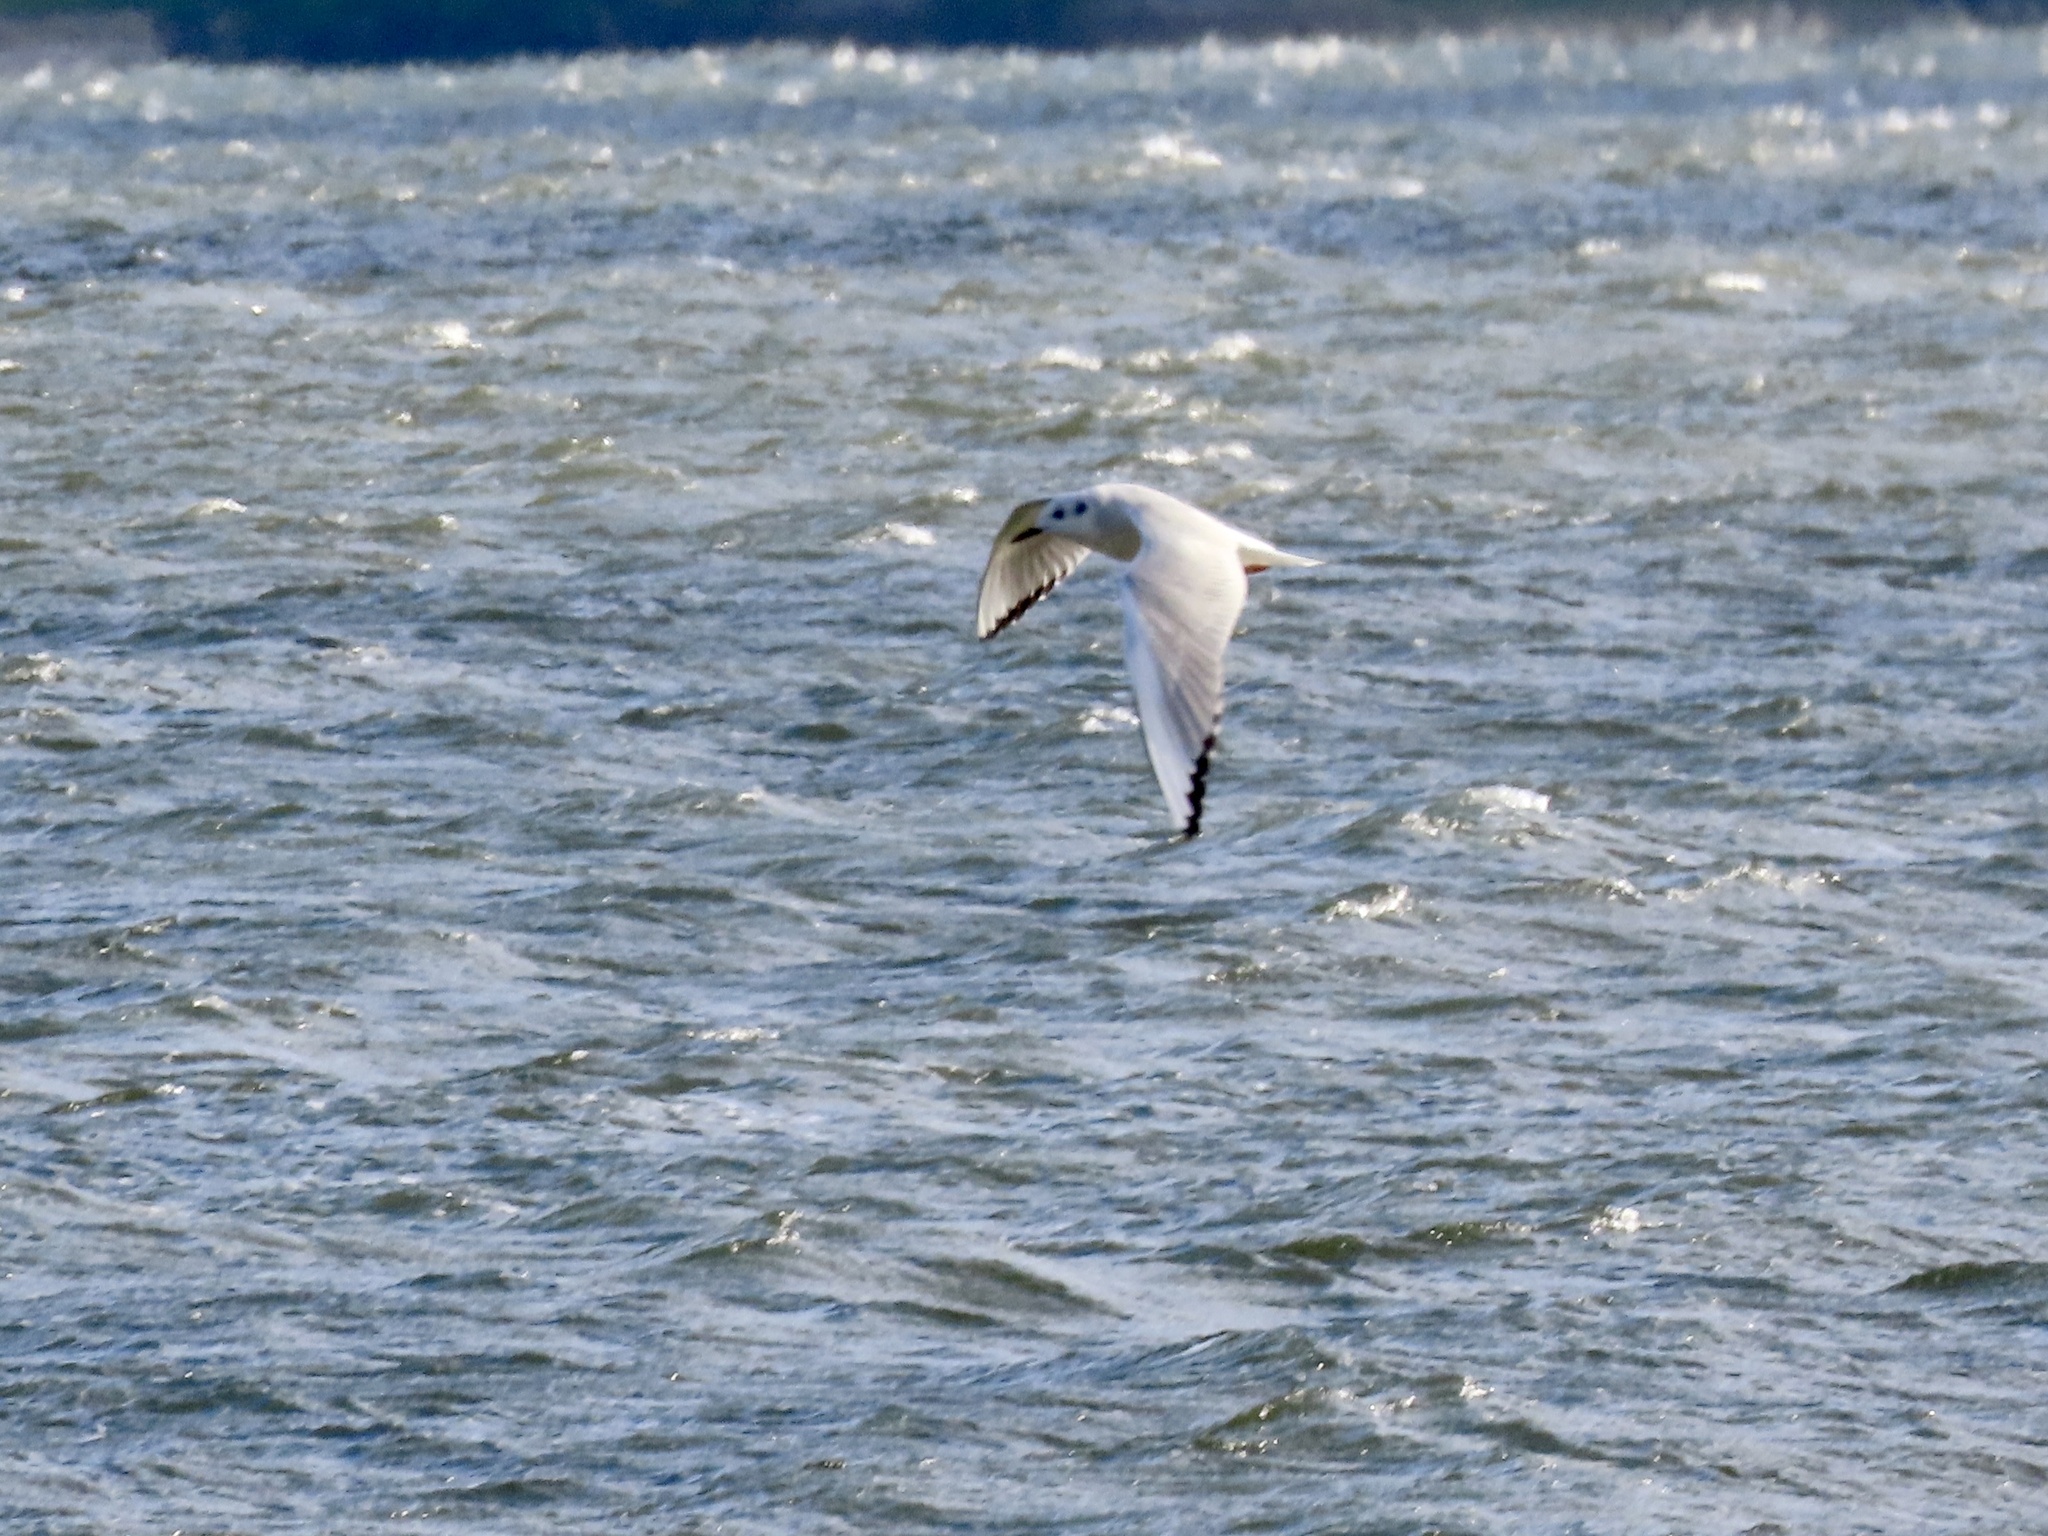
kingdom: Animalia
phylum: Chordata
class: Aves
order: Charadriiformes
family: Laridae
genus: Chroicocephalus
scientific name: Chroicocephalus philadelphia
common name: Bonaparte's gull
